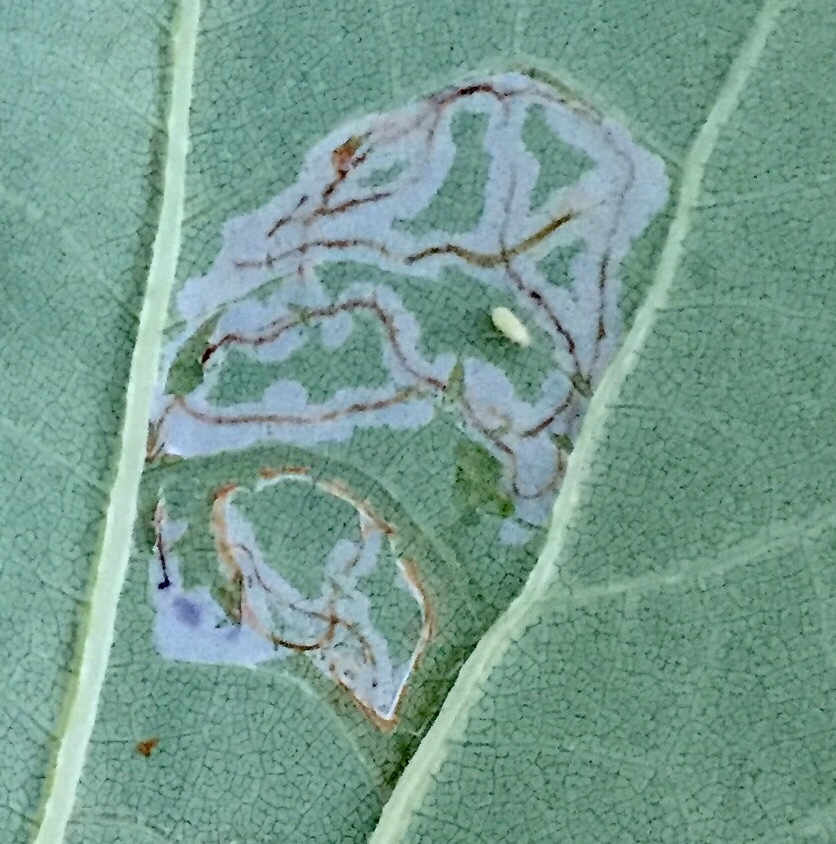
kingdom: Animalia
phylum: Arthropoda
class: Insecta
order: Lepidoptera
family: Gracillariidae
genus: Phyllocnistis
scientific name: Phyllocnistis liriodendronella
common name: Tulip tree leaf miner
